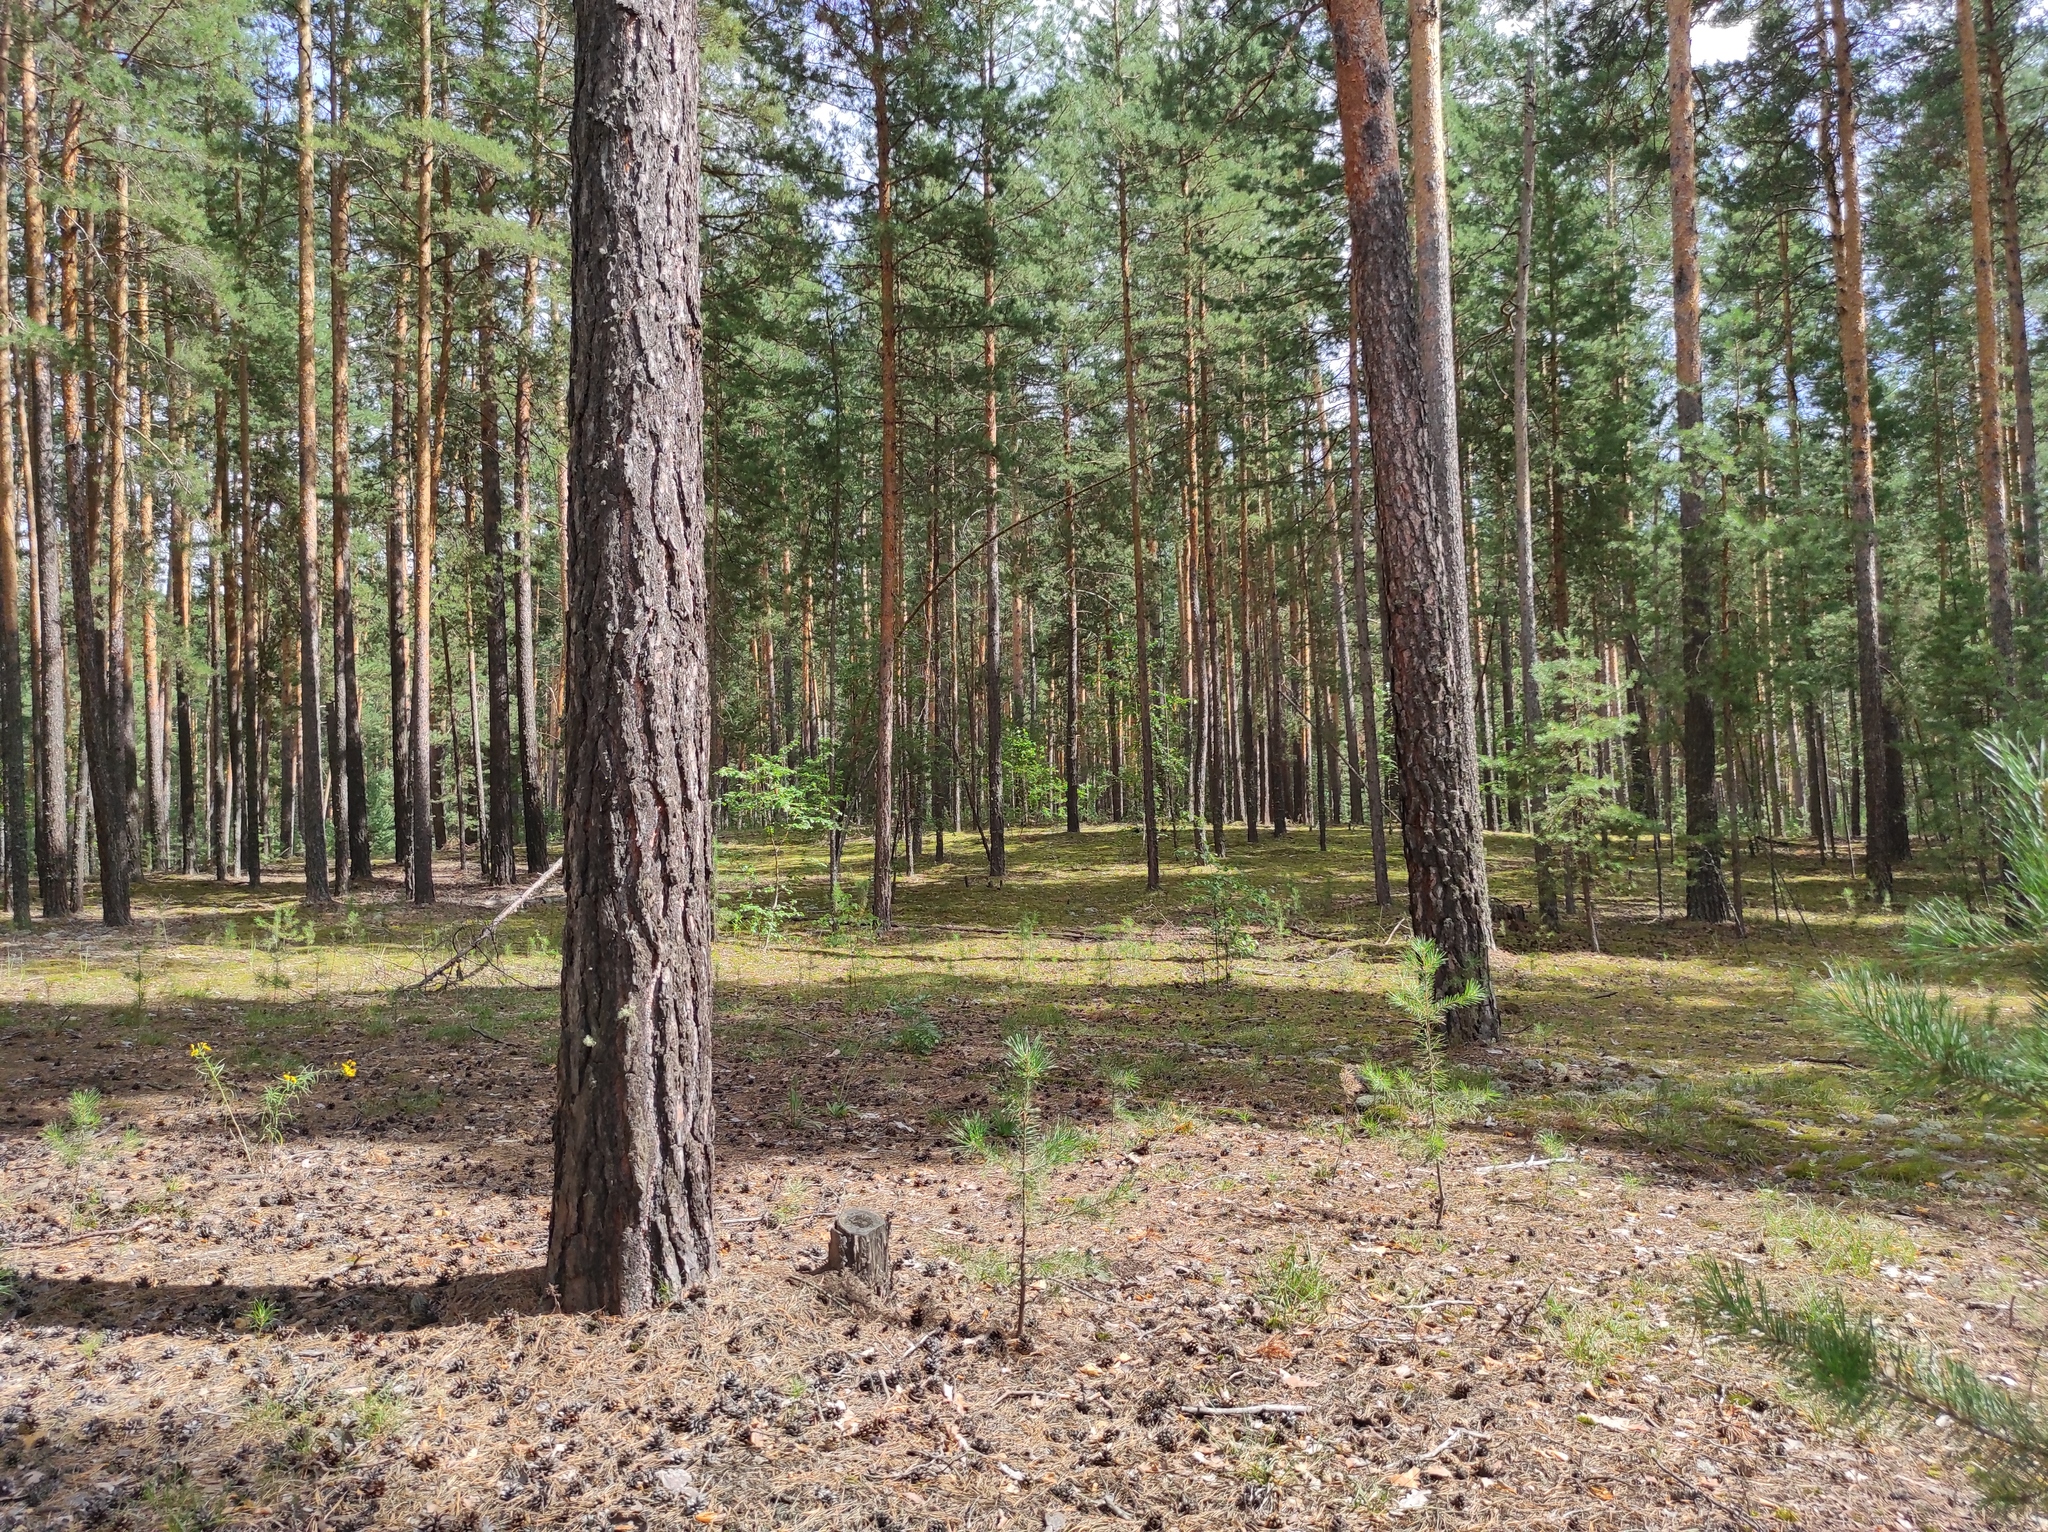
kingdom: Plantae
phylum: Tracheophyta
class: Pinopsida
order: Pinales
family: Pinaceae
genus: Pinus
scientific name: Pinus sylvestris
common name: Scots pine
